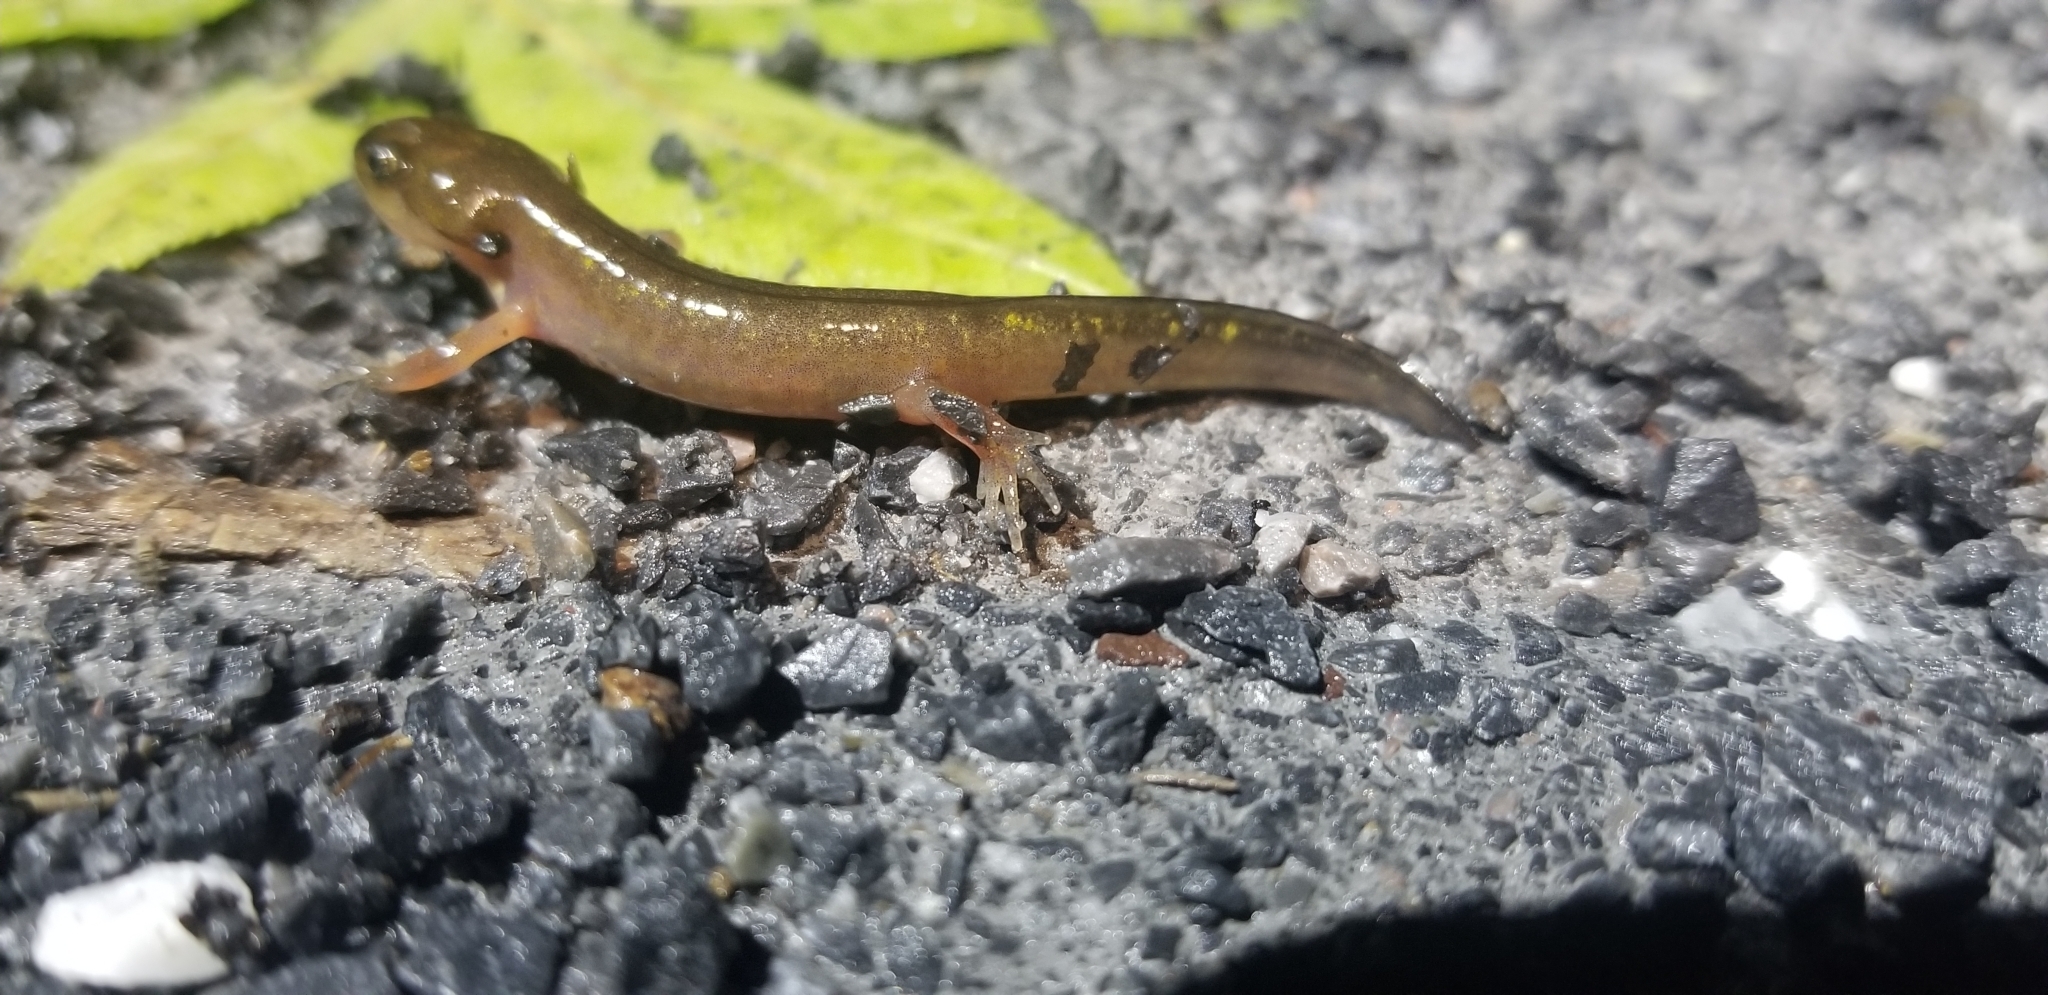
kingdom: Animalia
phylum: Chordata
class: Amphibia
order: Caudata
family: Ambystomatidae
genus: Ambystoma
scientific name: Ambystoma maculatum
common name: Spotted salamander
